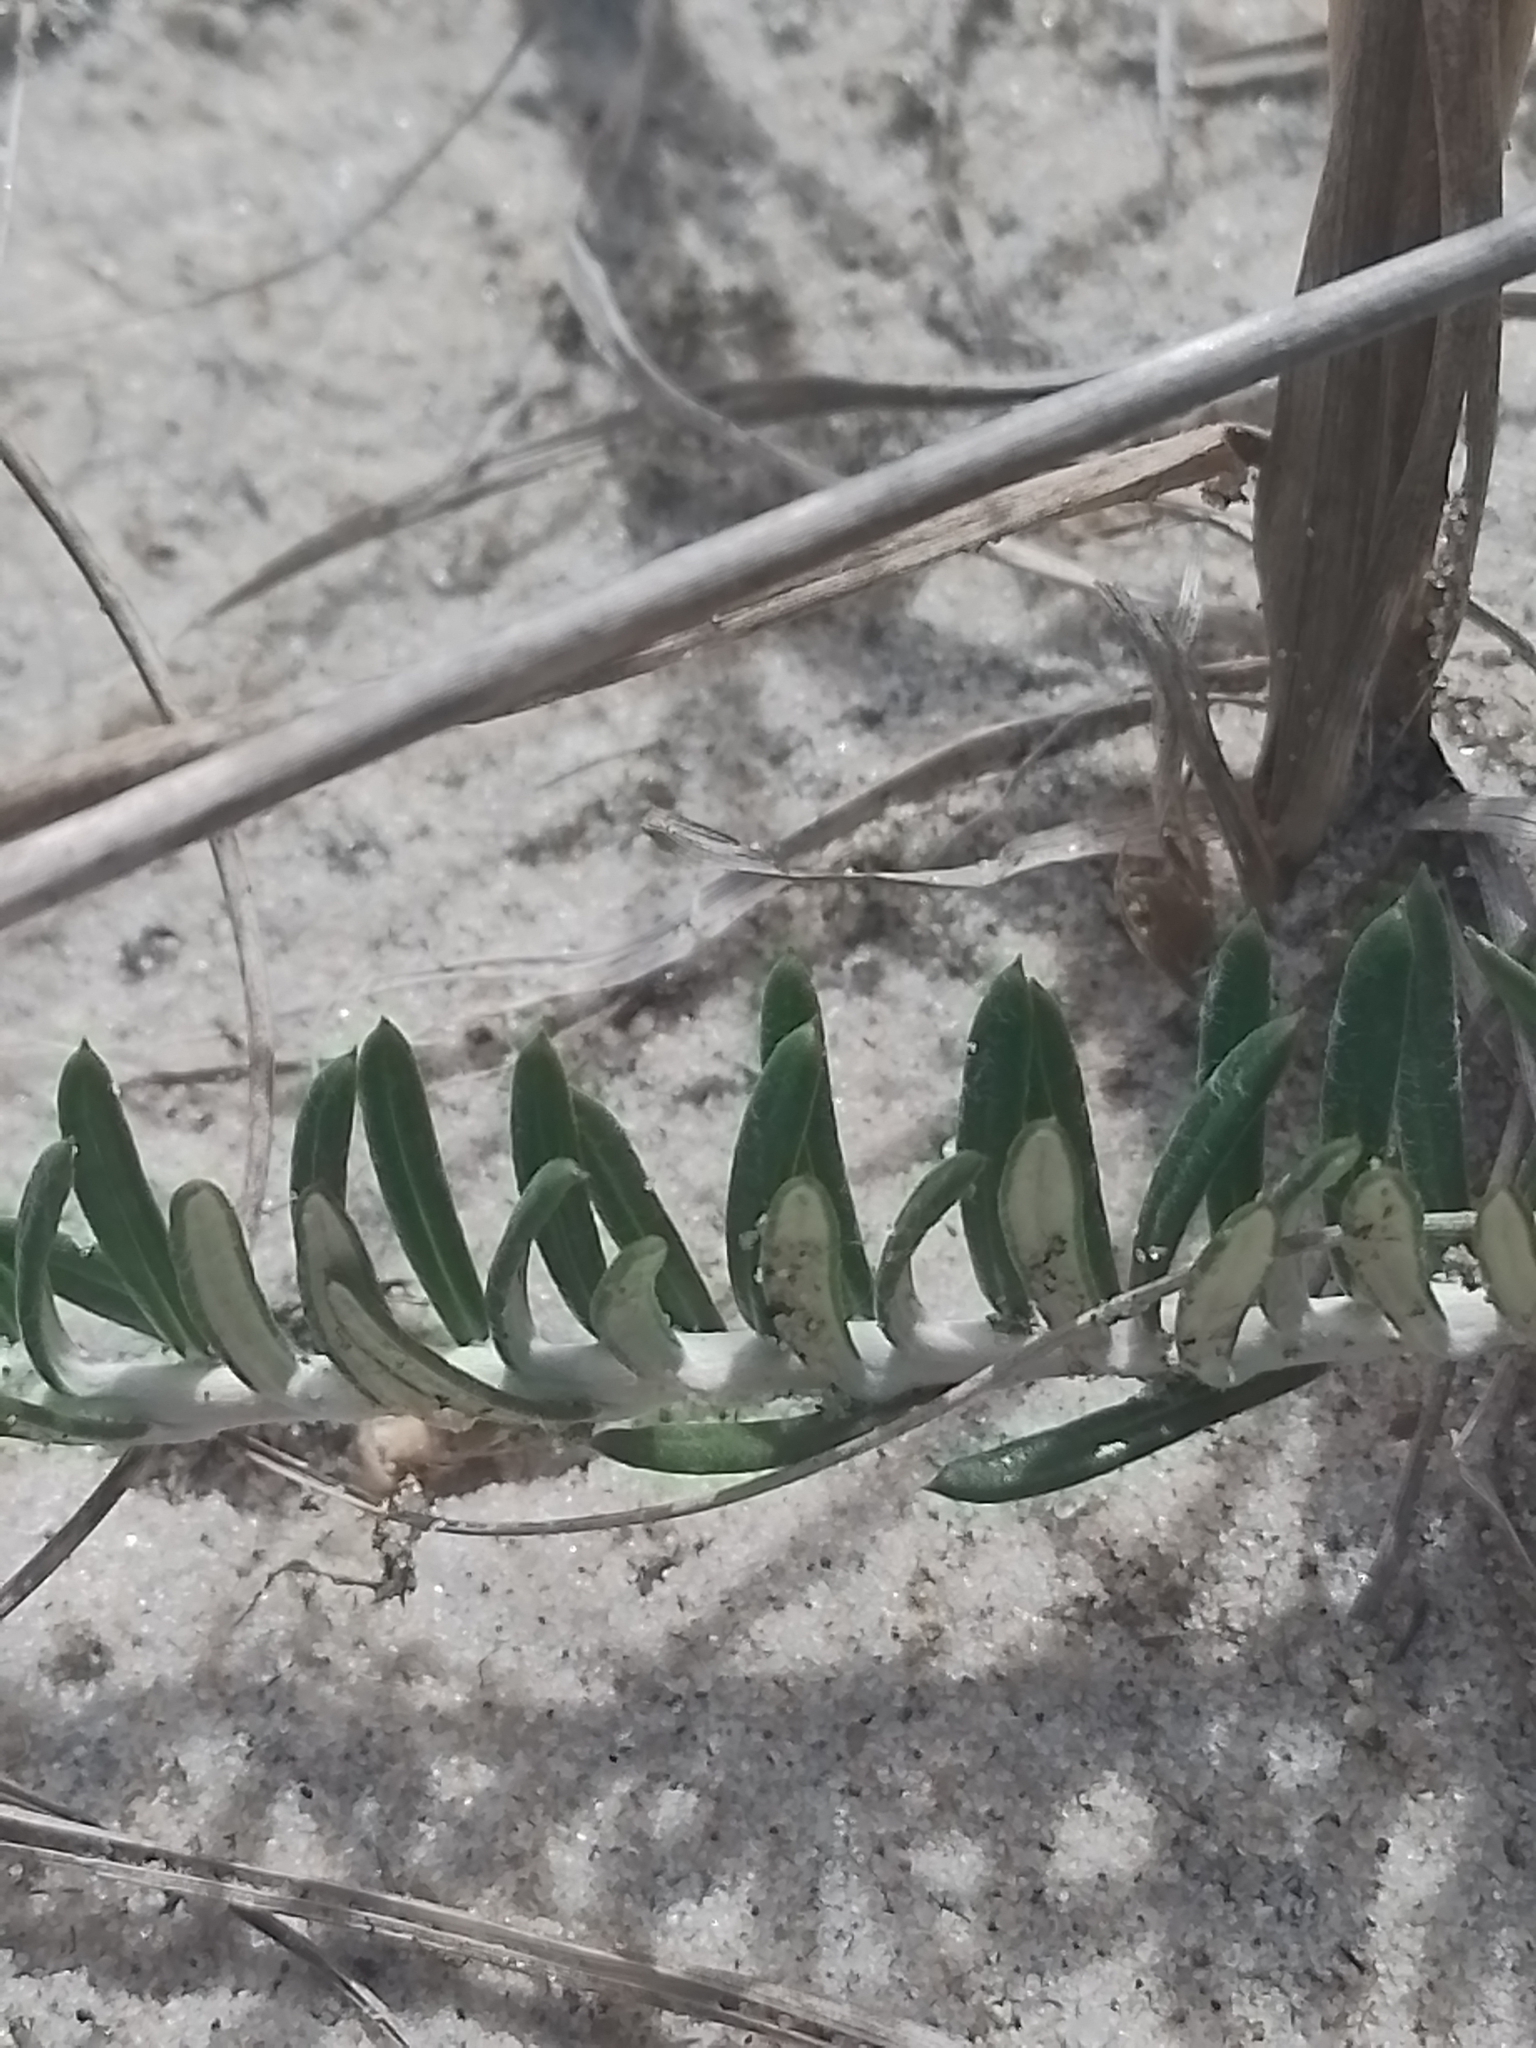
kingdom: Plantae
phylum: Tracheophyta
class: Magnoliopsida
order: Asterales
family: Asteraceae
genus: Baccharis
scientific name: Baccharis gnaphalioides
